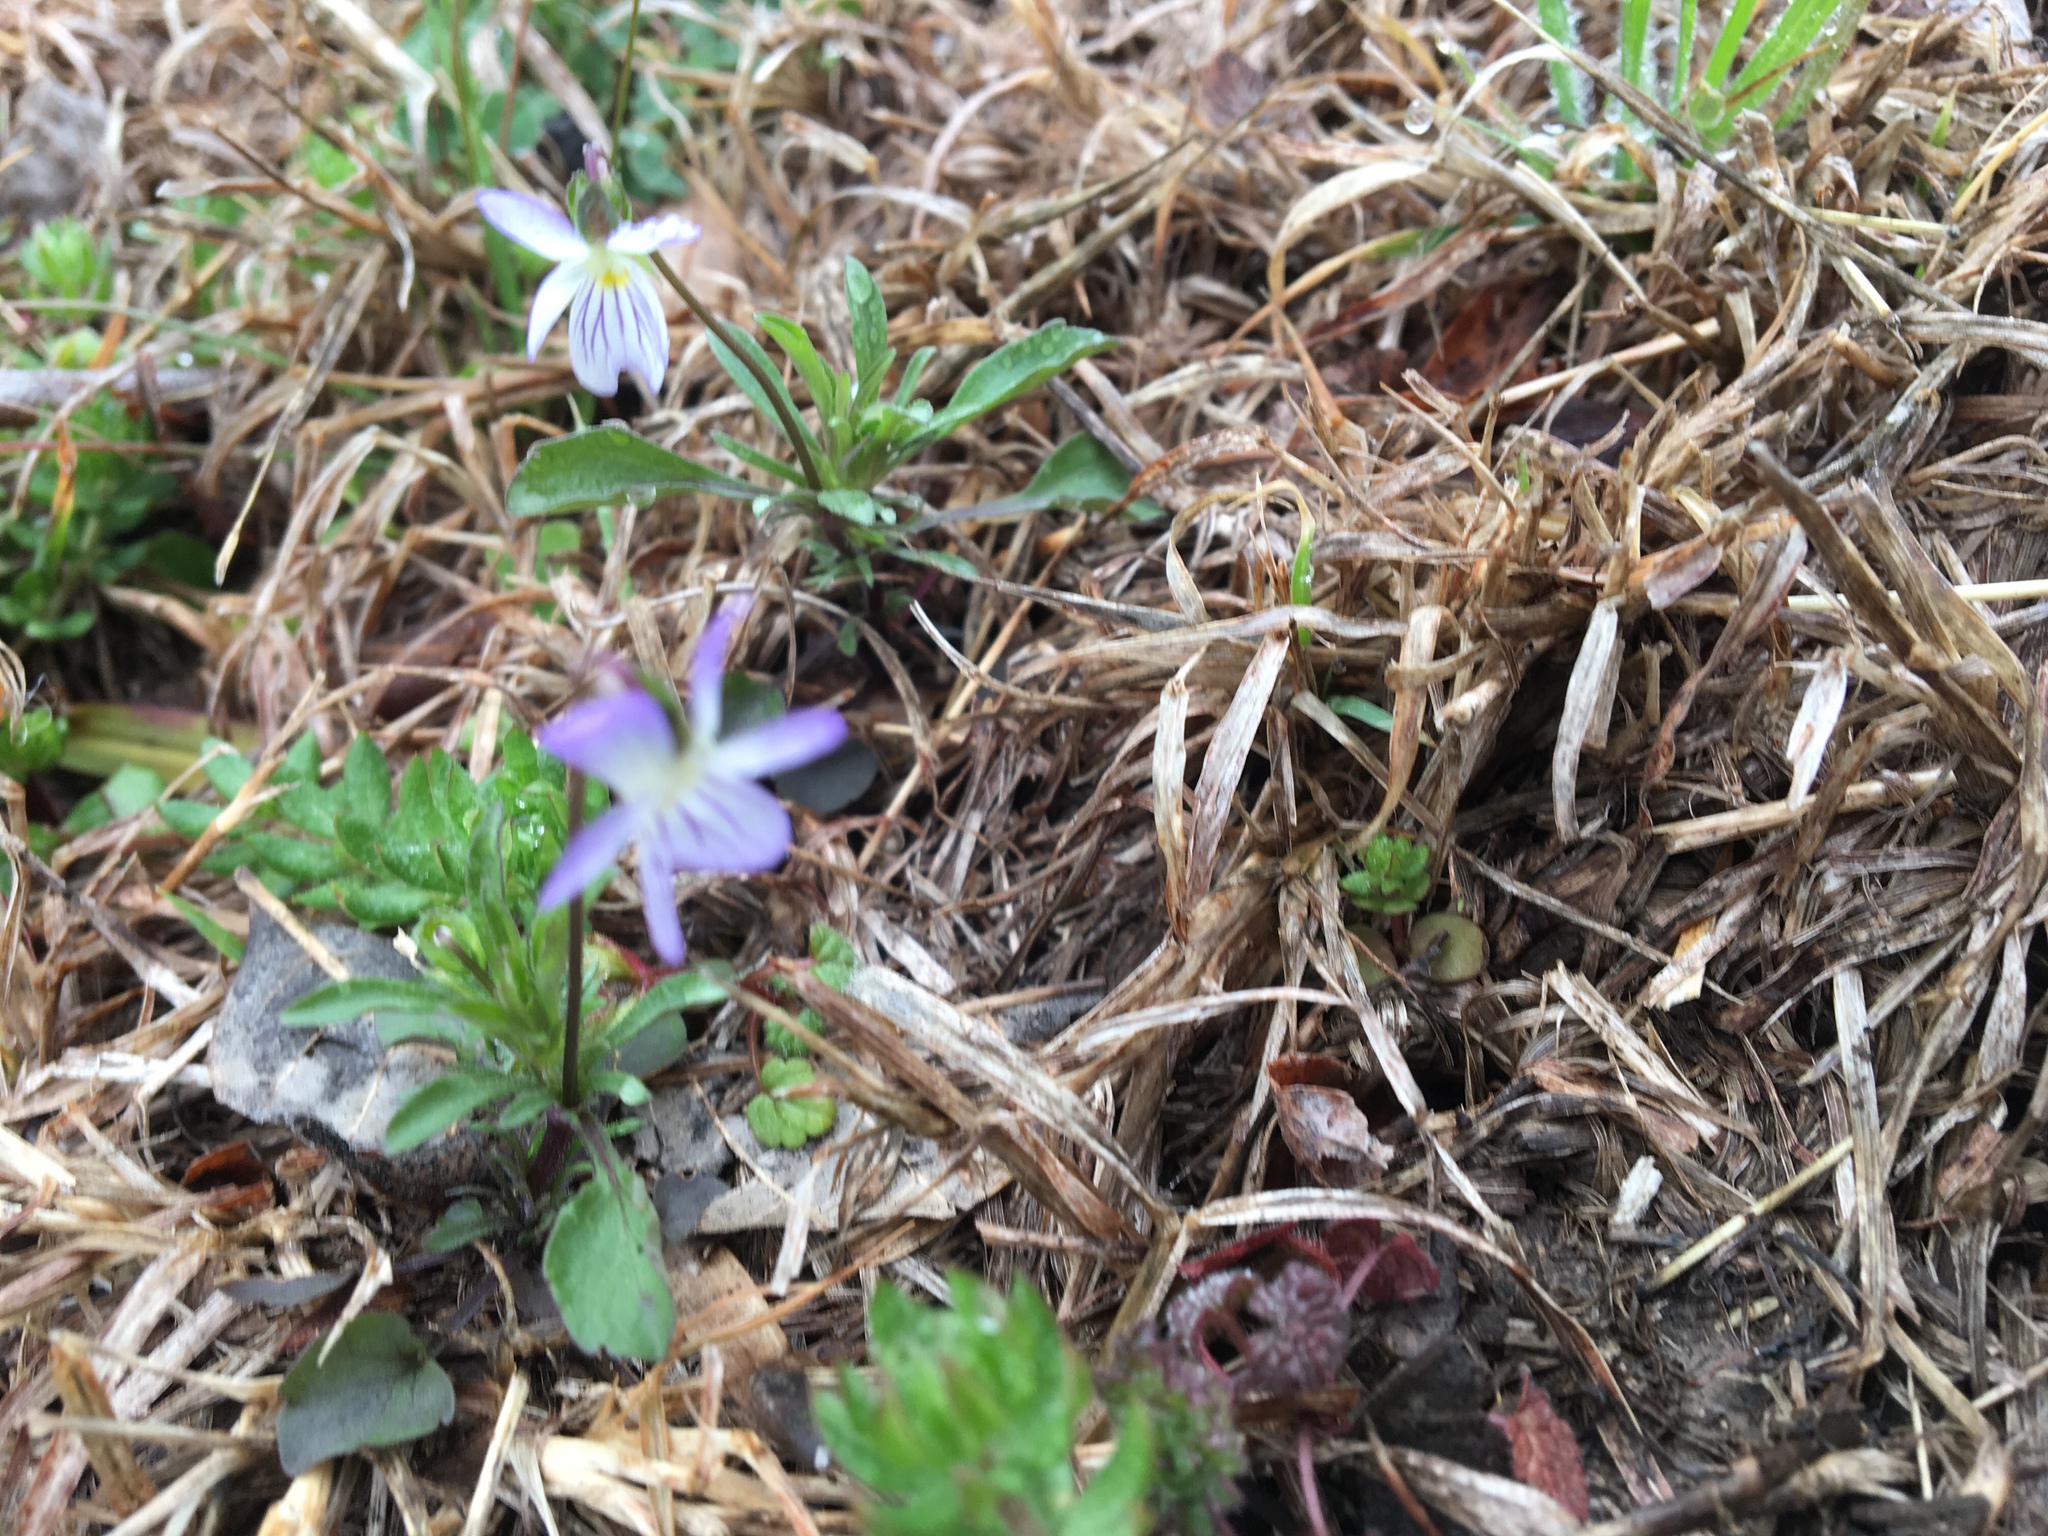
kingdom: Plantae
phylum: Tracheophyta
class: Magnoliopsida
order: Malpighiales
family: Violaceae
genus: Viola
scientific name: Viola rafinesquei
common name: American field pansy
